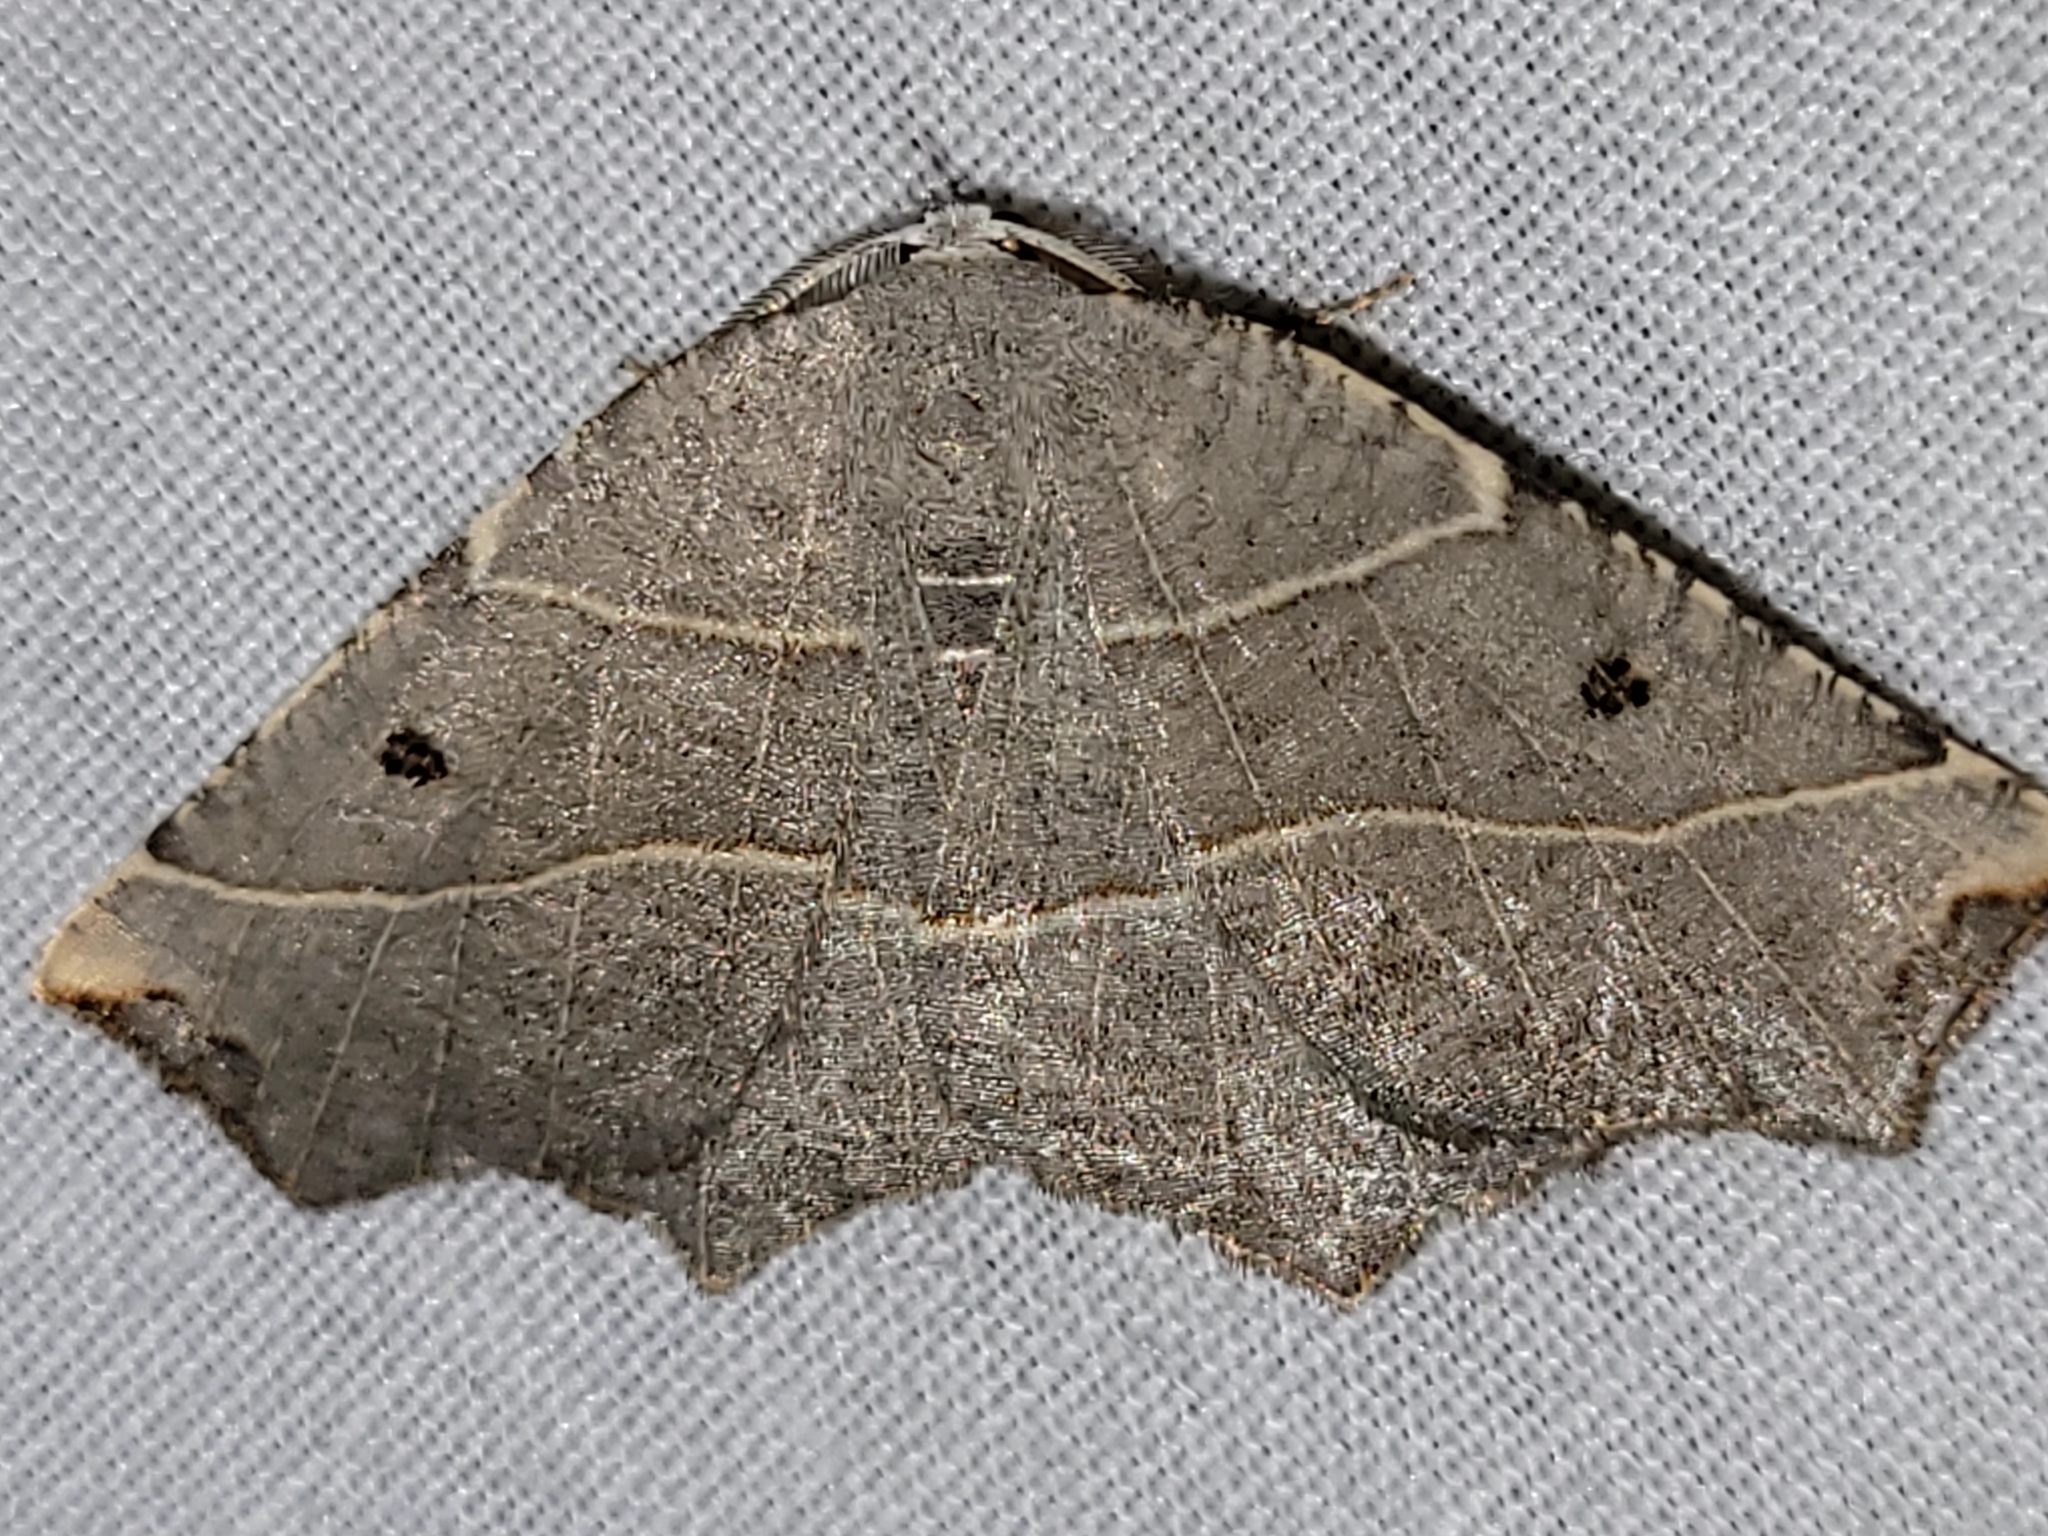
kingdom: Animalia
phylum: Arthropoda
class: Insecta
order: Lepidoptera
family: Geometridae
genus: Metanema
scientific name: Metanema inatomaria
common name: Pale metanema
